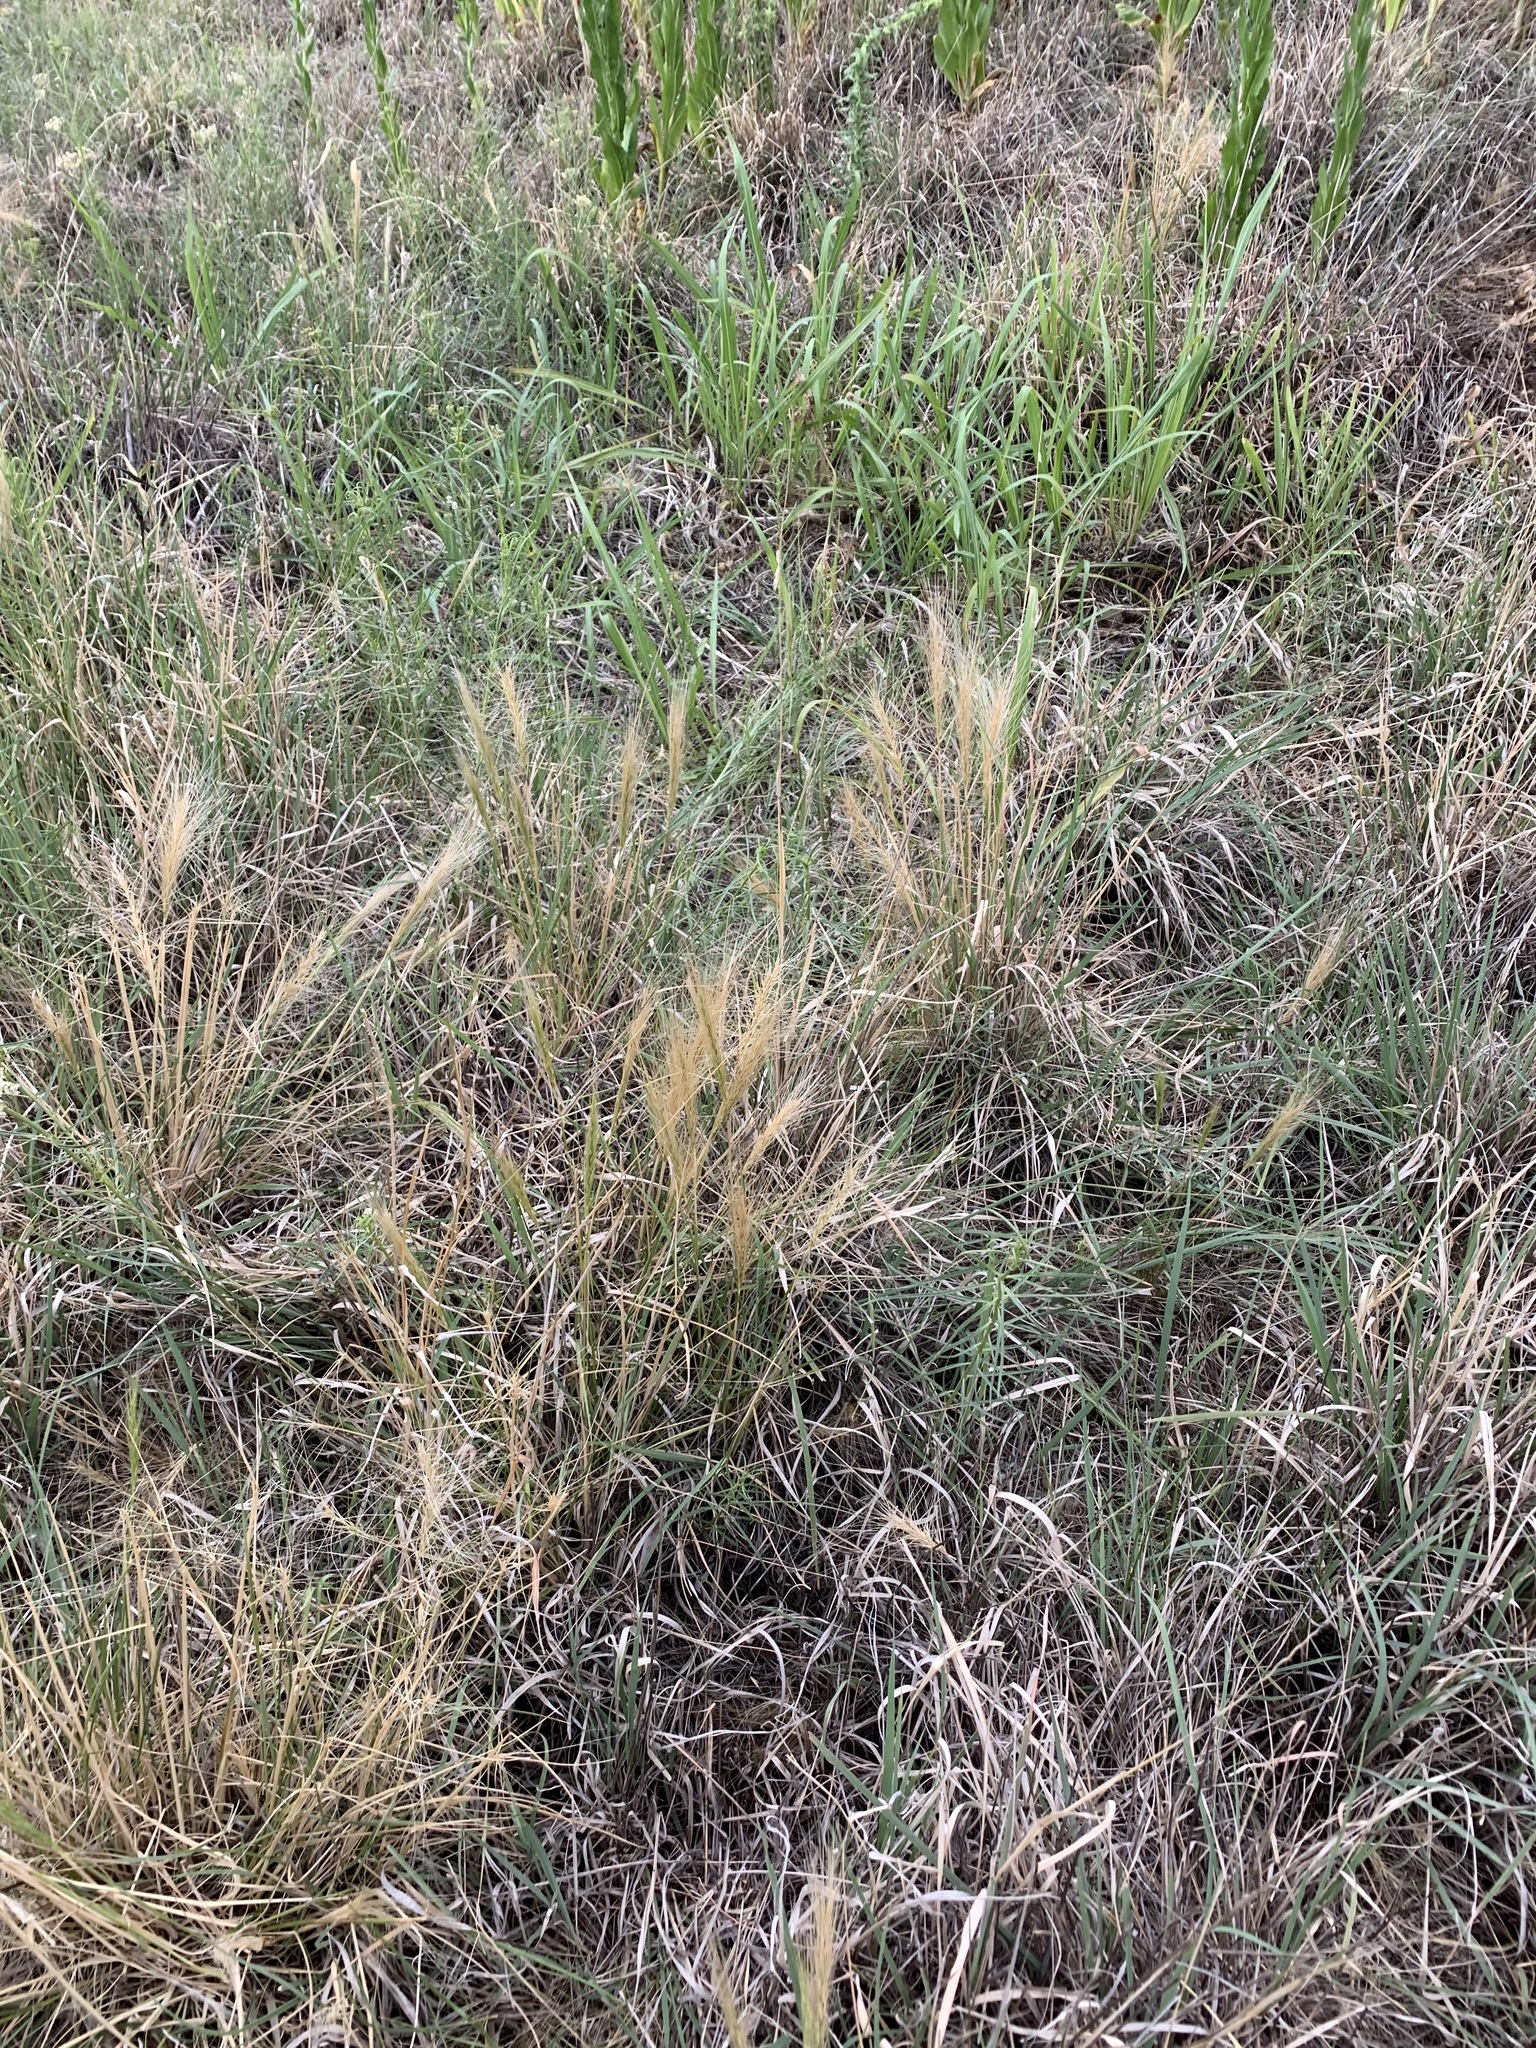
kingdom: Plantae
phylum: Tracheophyta
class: Liliopsida
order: Poales
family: Poaceae
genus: Elymus
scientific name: Elymus elymoides
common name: Bottlebrush squirreltail
